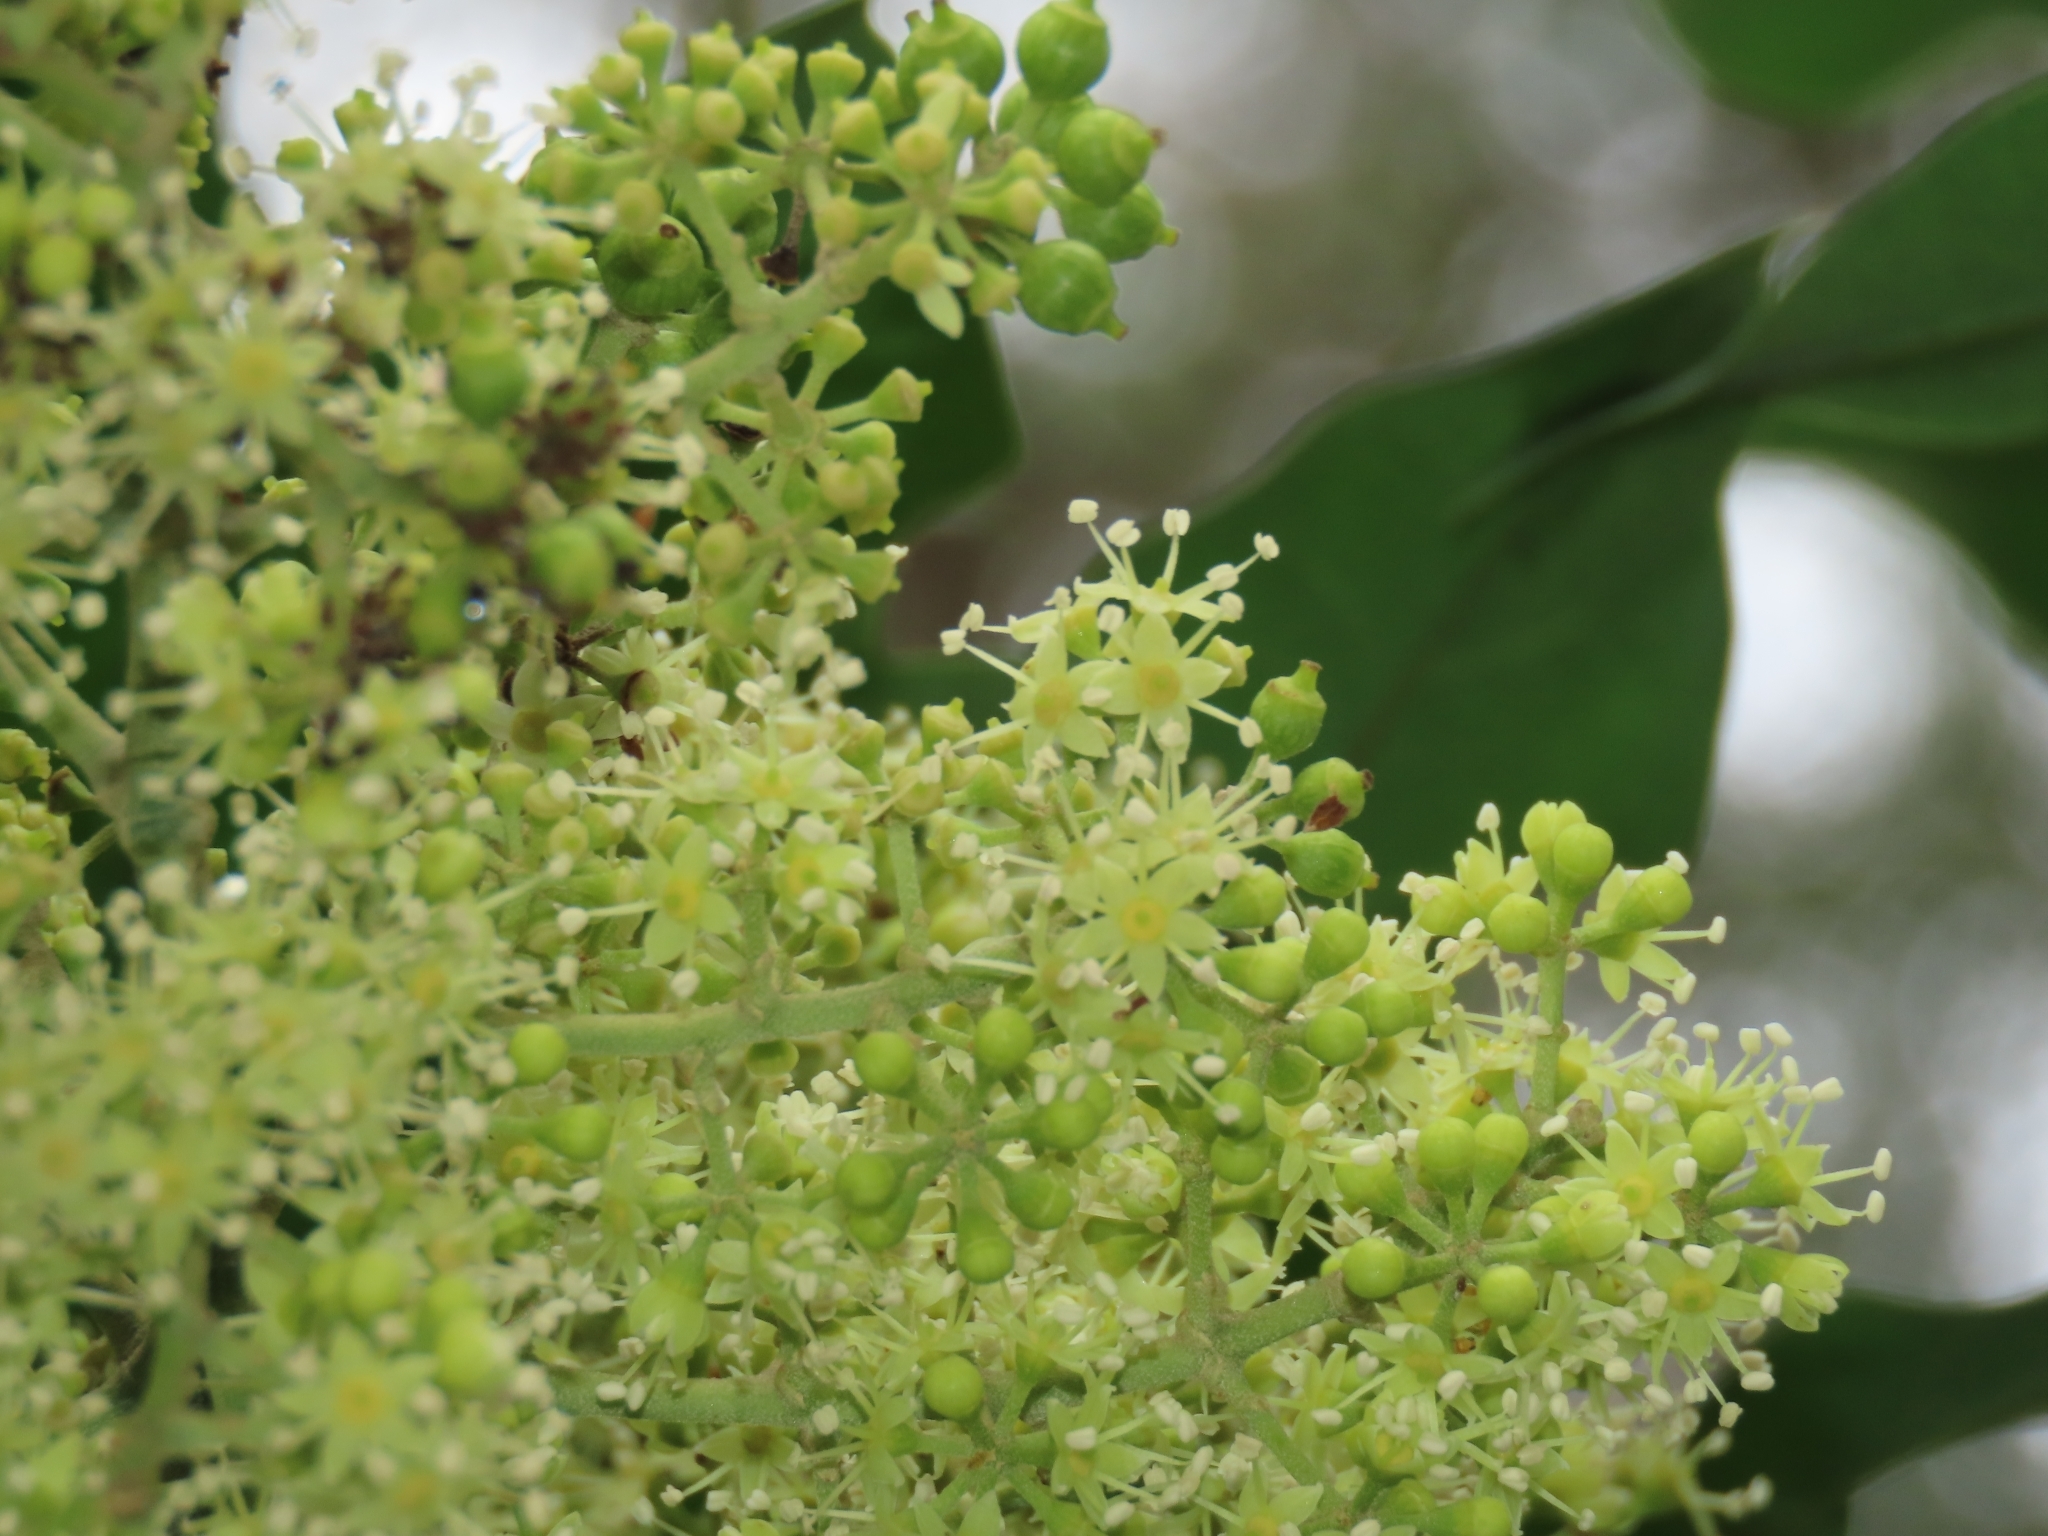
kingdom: Plantae
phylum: Tracheophyta
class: Magnoliopsida
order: Apiales
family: Araliaceae
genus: Heptapleurum
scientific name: Heptapleurum heptaphyllum
